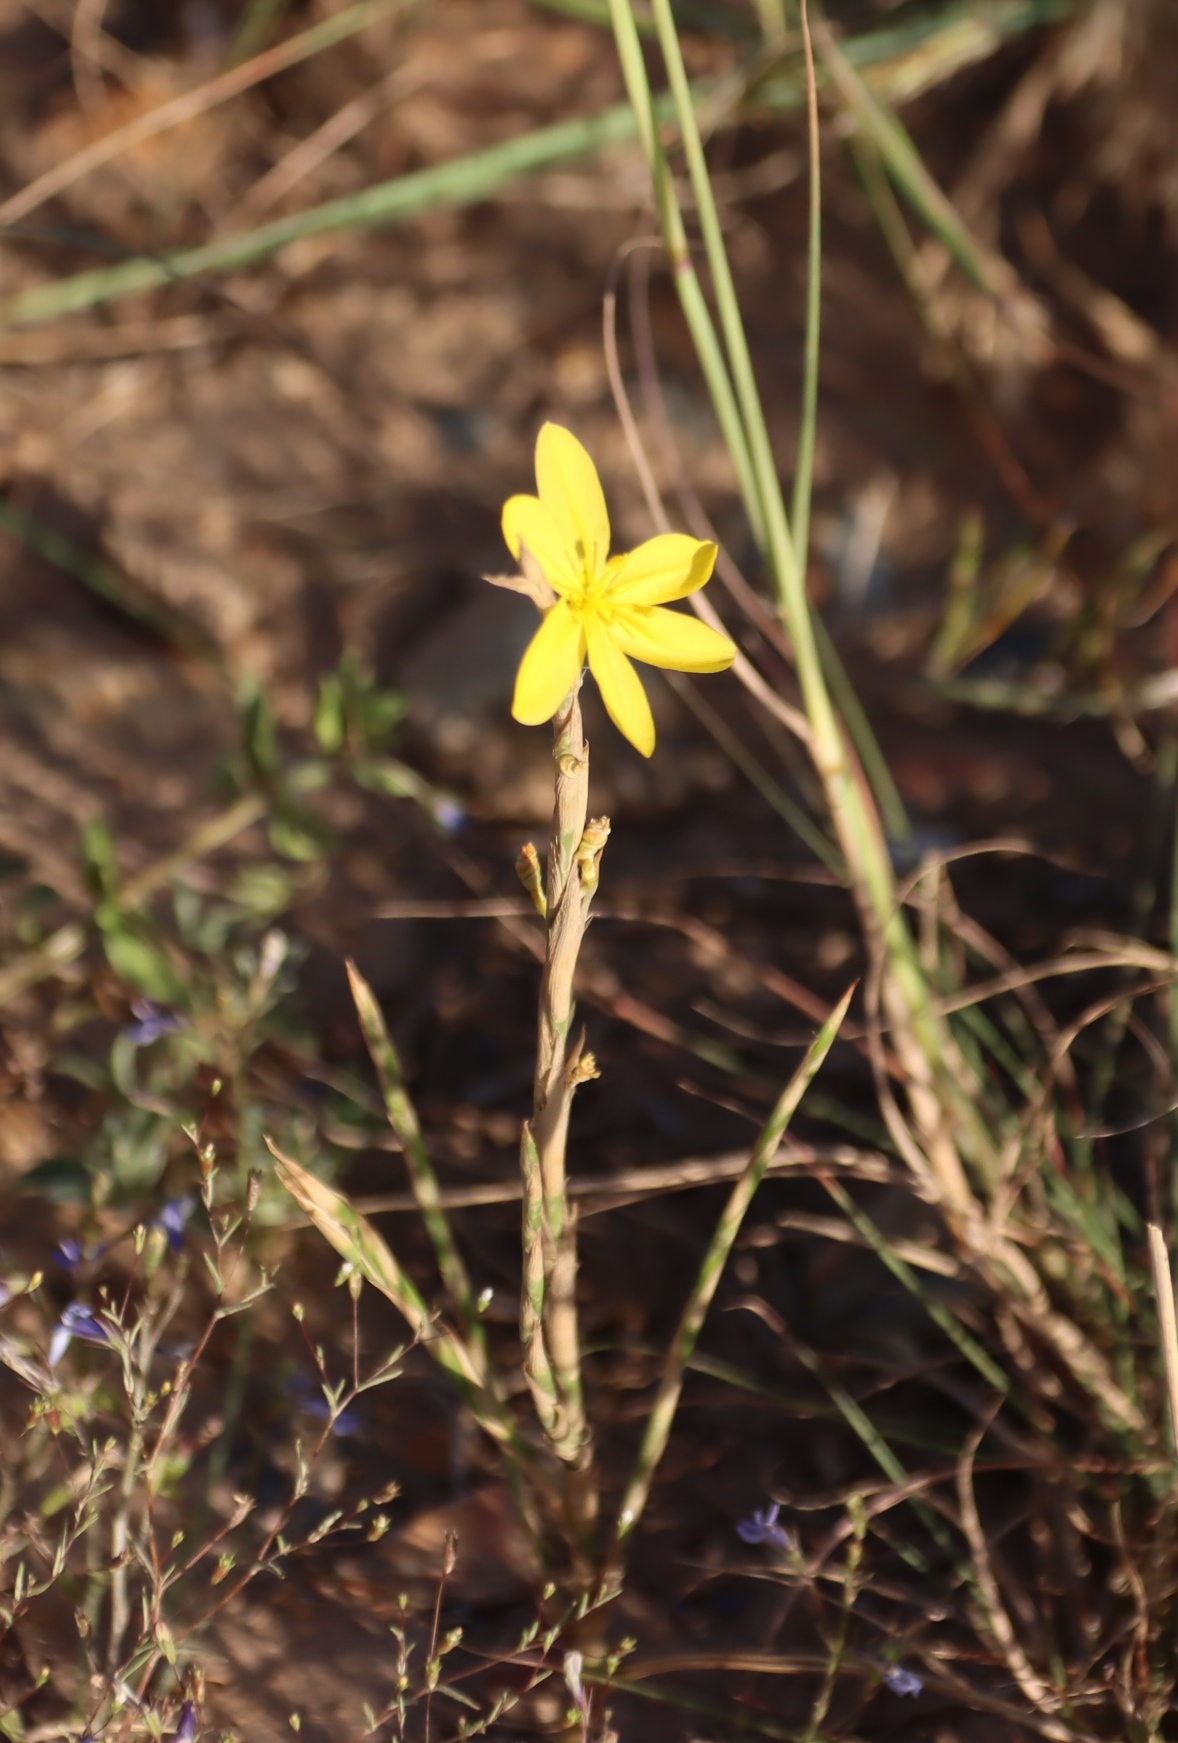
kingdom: Plantae
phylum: Tracheophyta
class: Liliopsida
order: Asparagales
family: Iridaceae
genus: Moraea
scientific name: Moraea virgata
